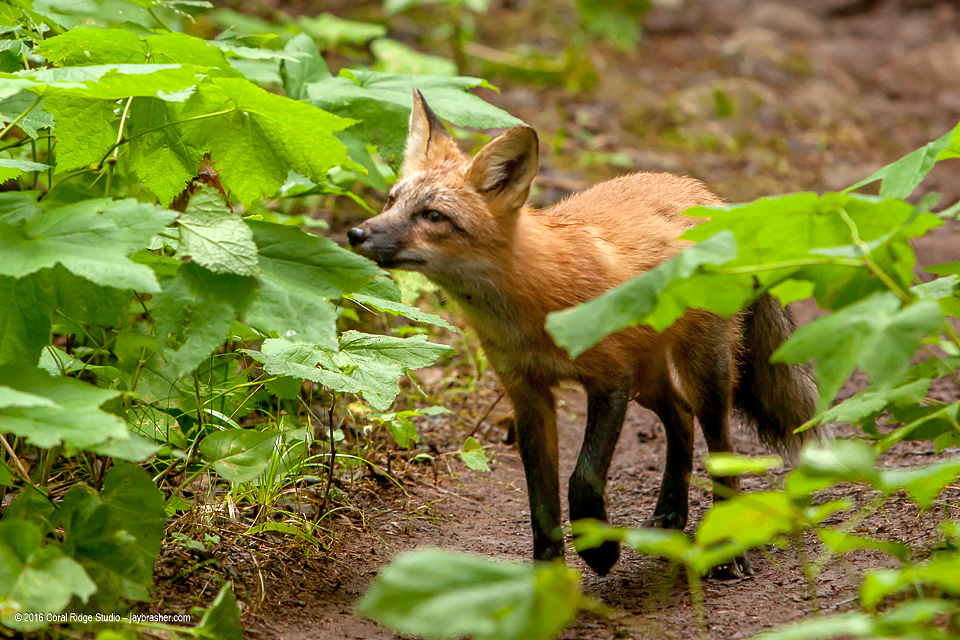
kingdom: Animalia
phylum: Chordata
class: Mammalia
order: Carnivora
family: Canidae
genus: Vulpes
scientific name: Vulpes vulpes
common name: Red fox
